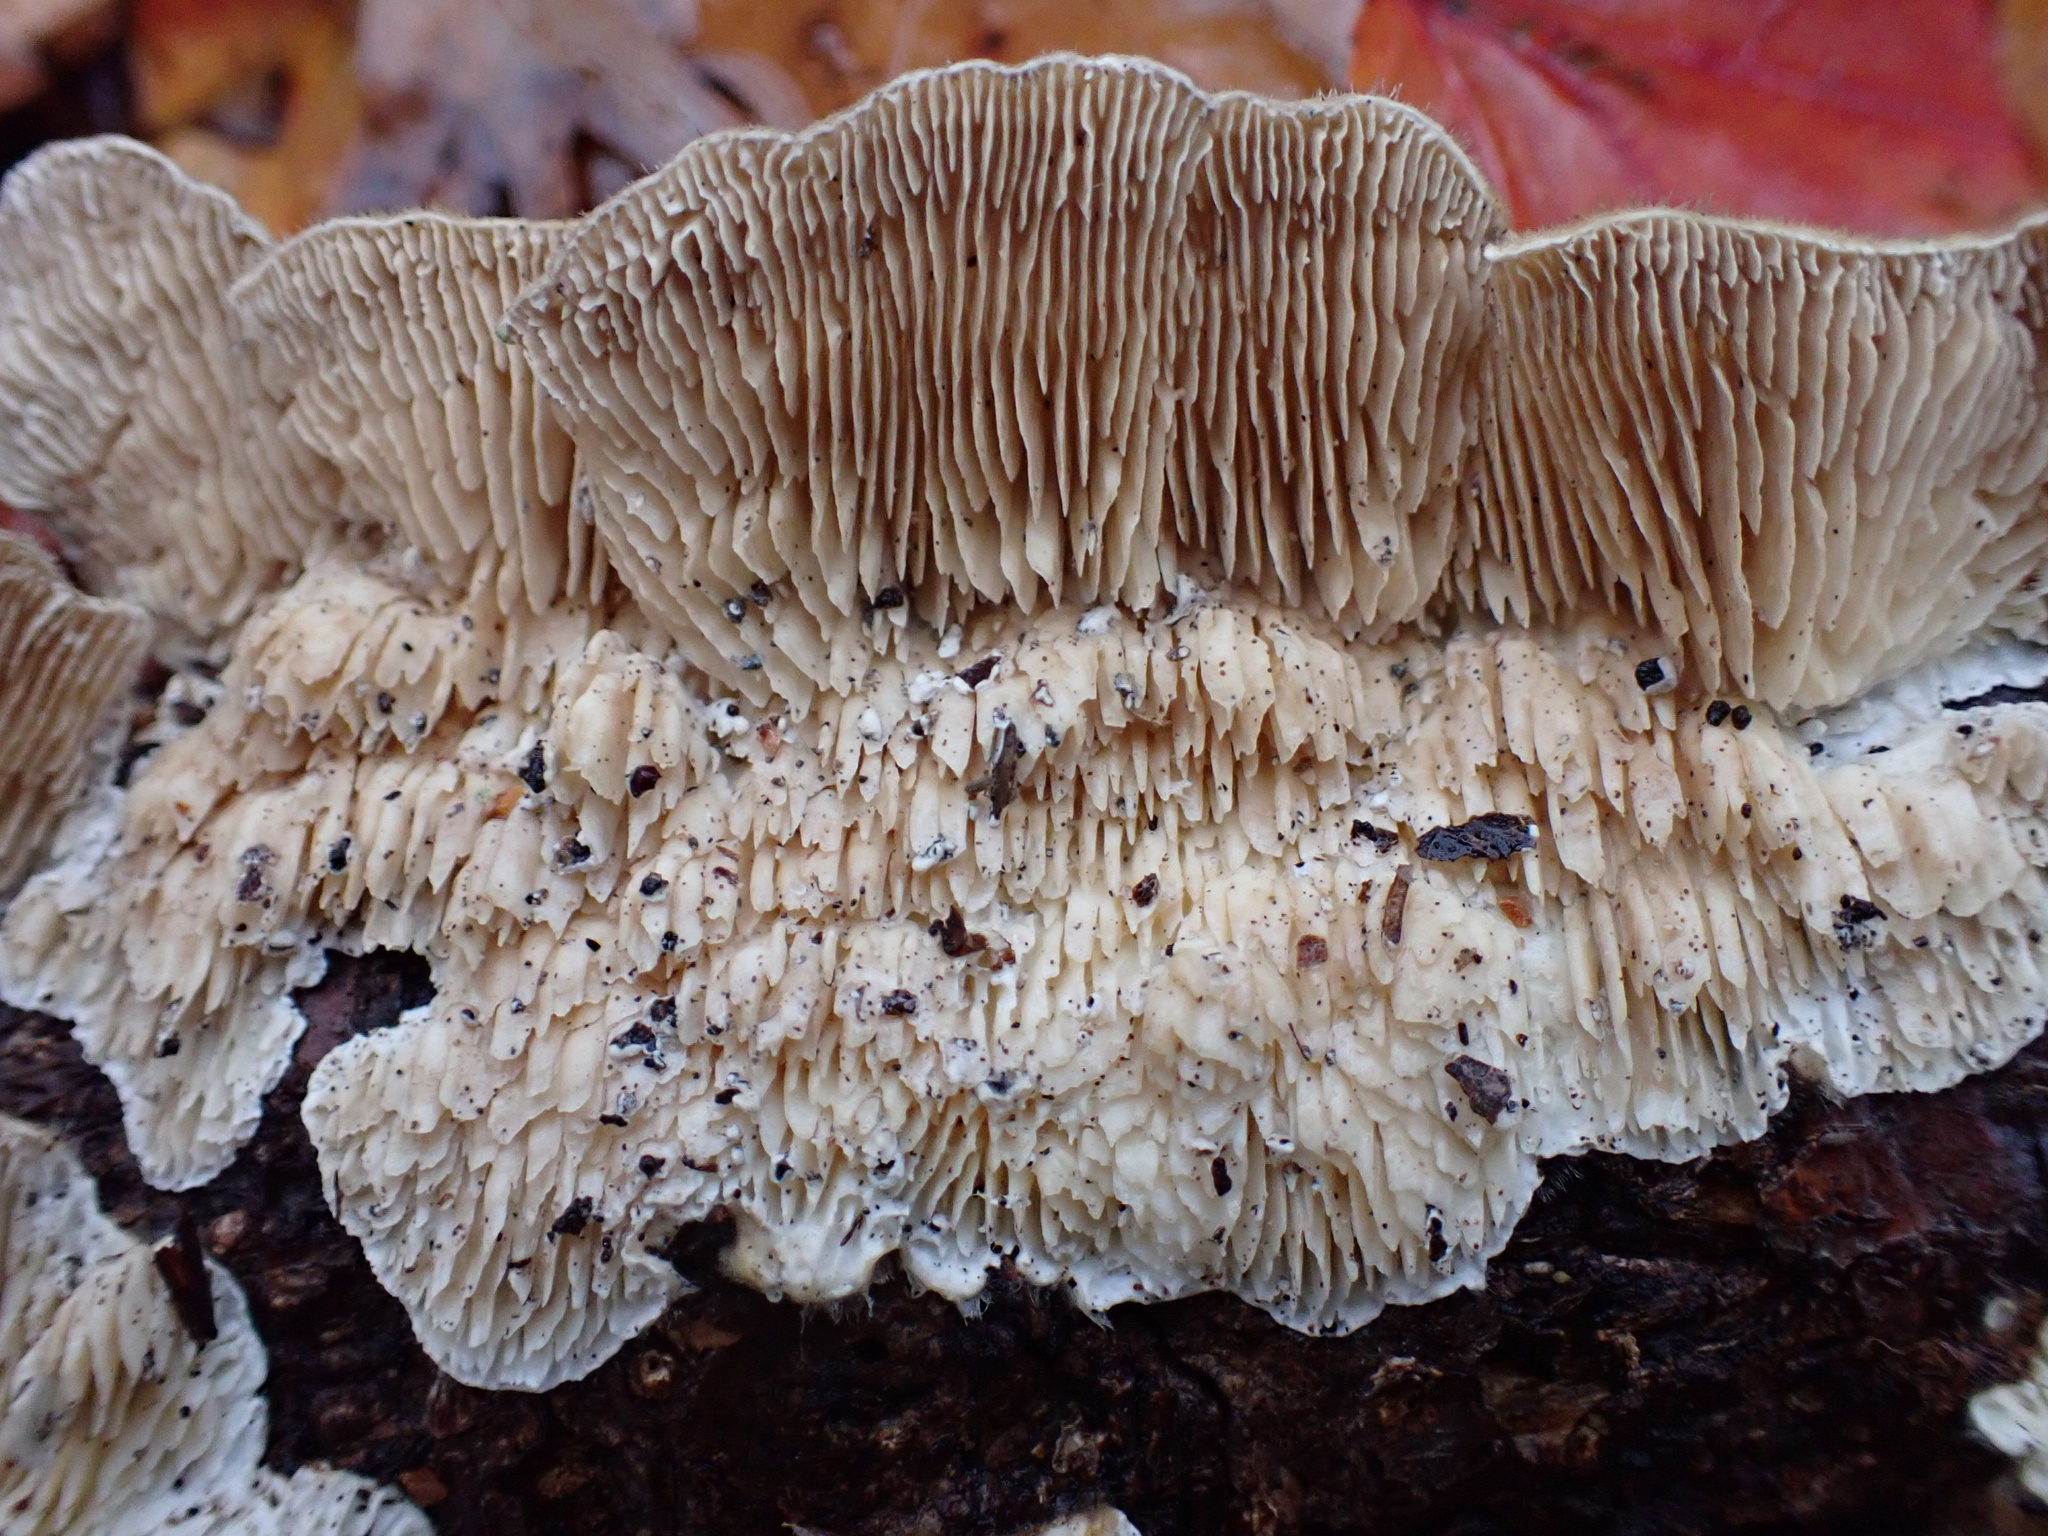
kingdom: Fungi
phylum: Basidiomycota
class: Agaricomycetes
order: Polyporales
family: Polyporaceae
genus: Lenzites
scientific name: Lenzites betulinus
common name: Birch mazegill
